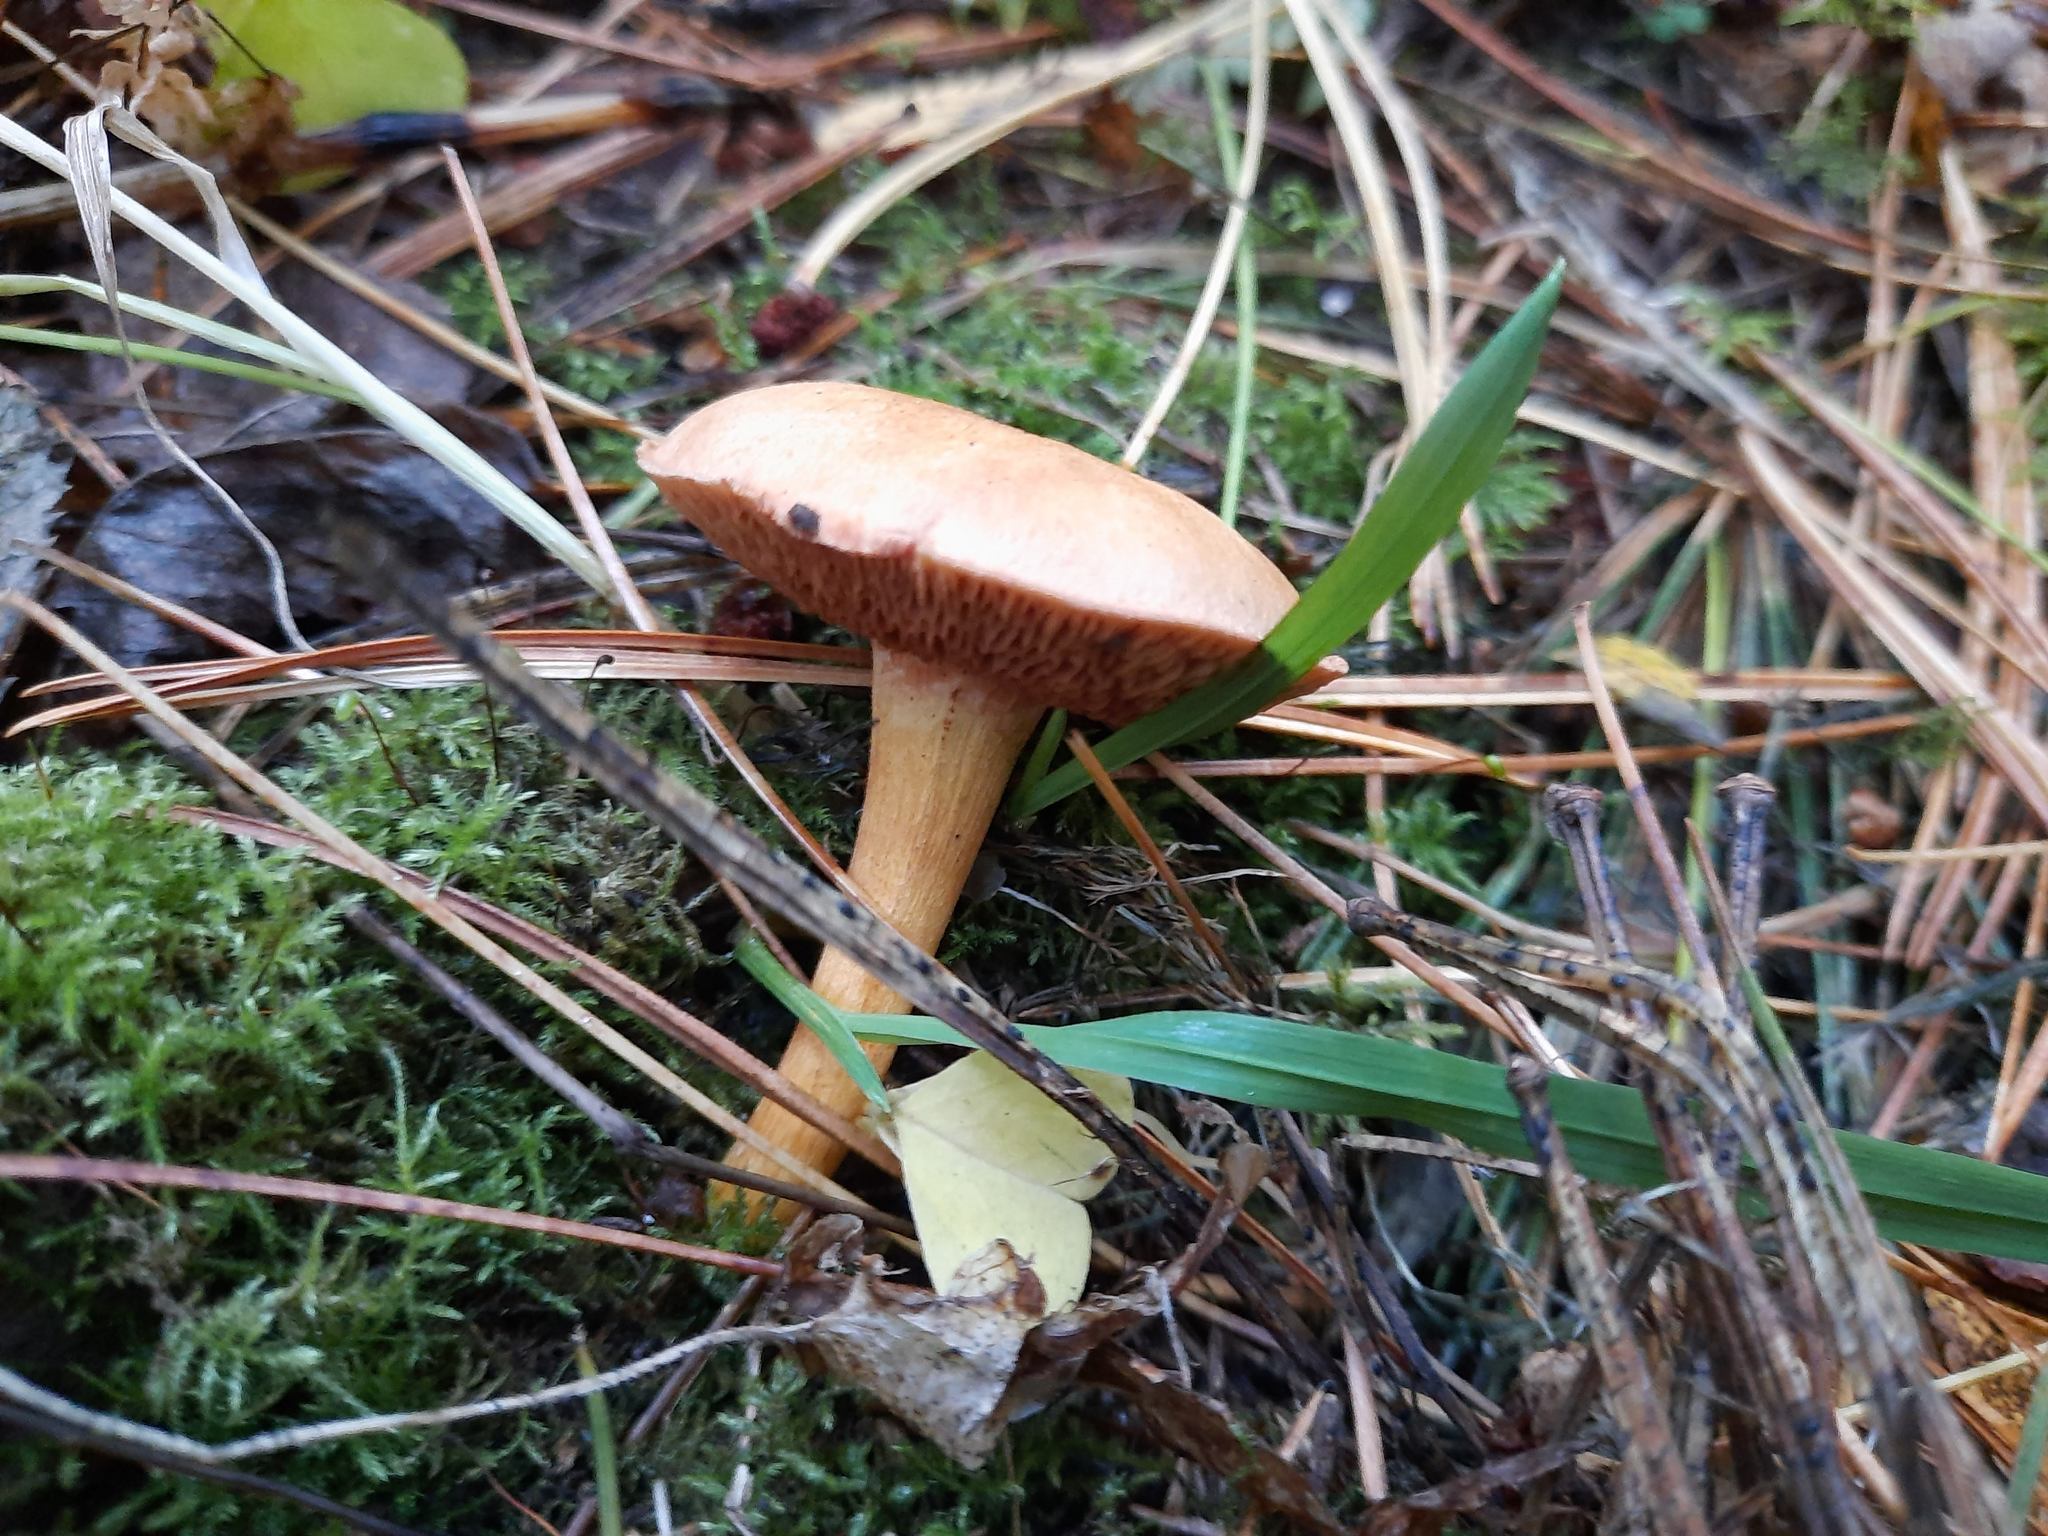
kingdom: Fungi
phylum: Basidiomycota
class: Agaricomycetes
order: Boletales
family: Boletaceae
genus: Chalciporus
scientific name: Chalciporus piperatus
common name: Peppery bolete
